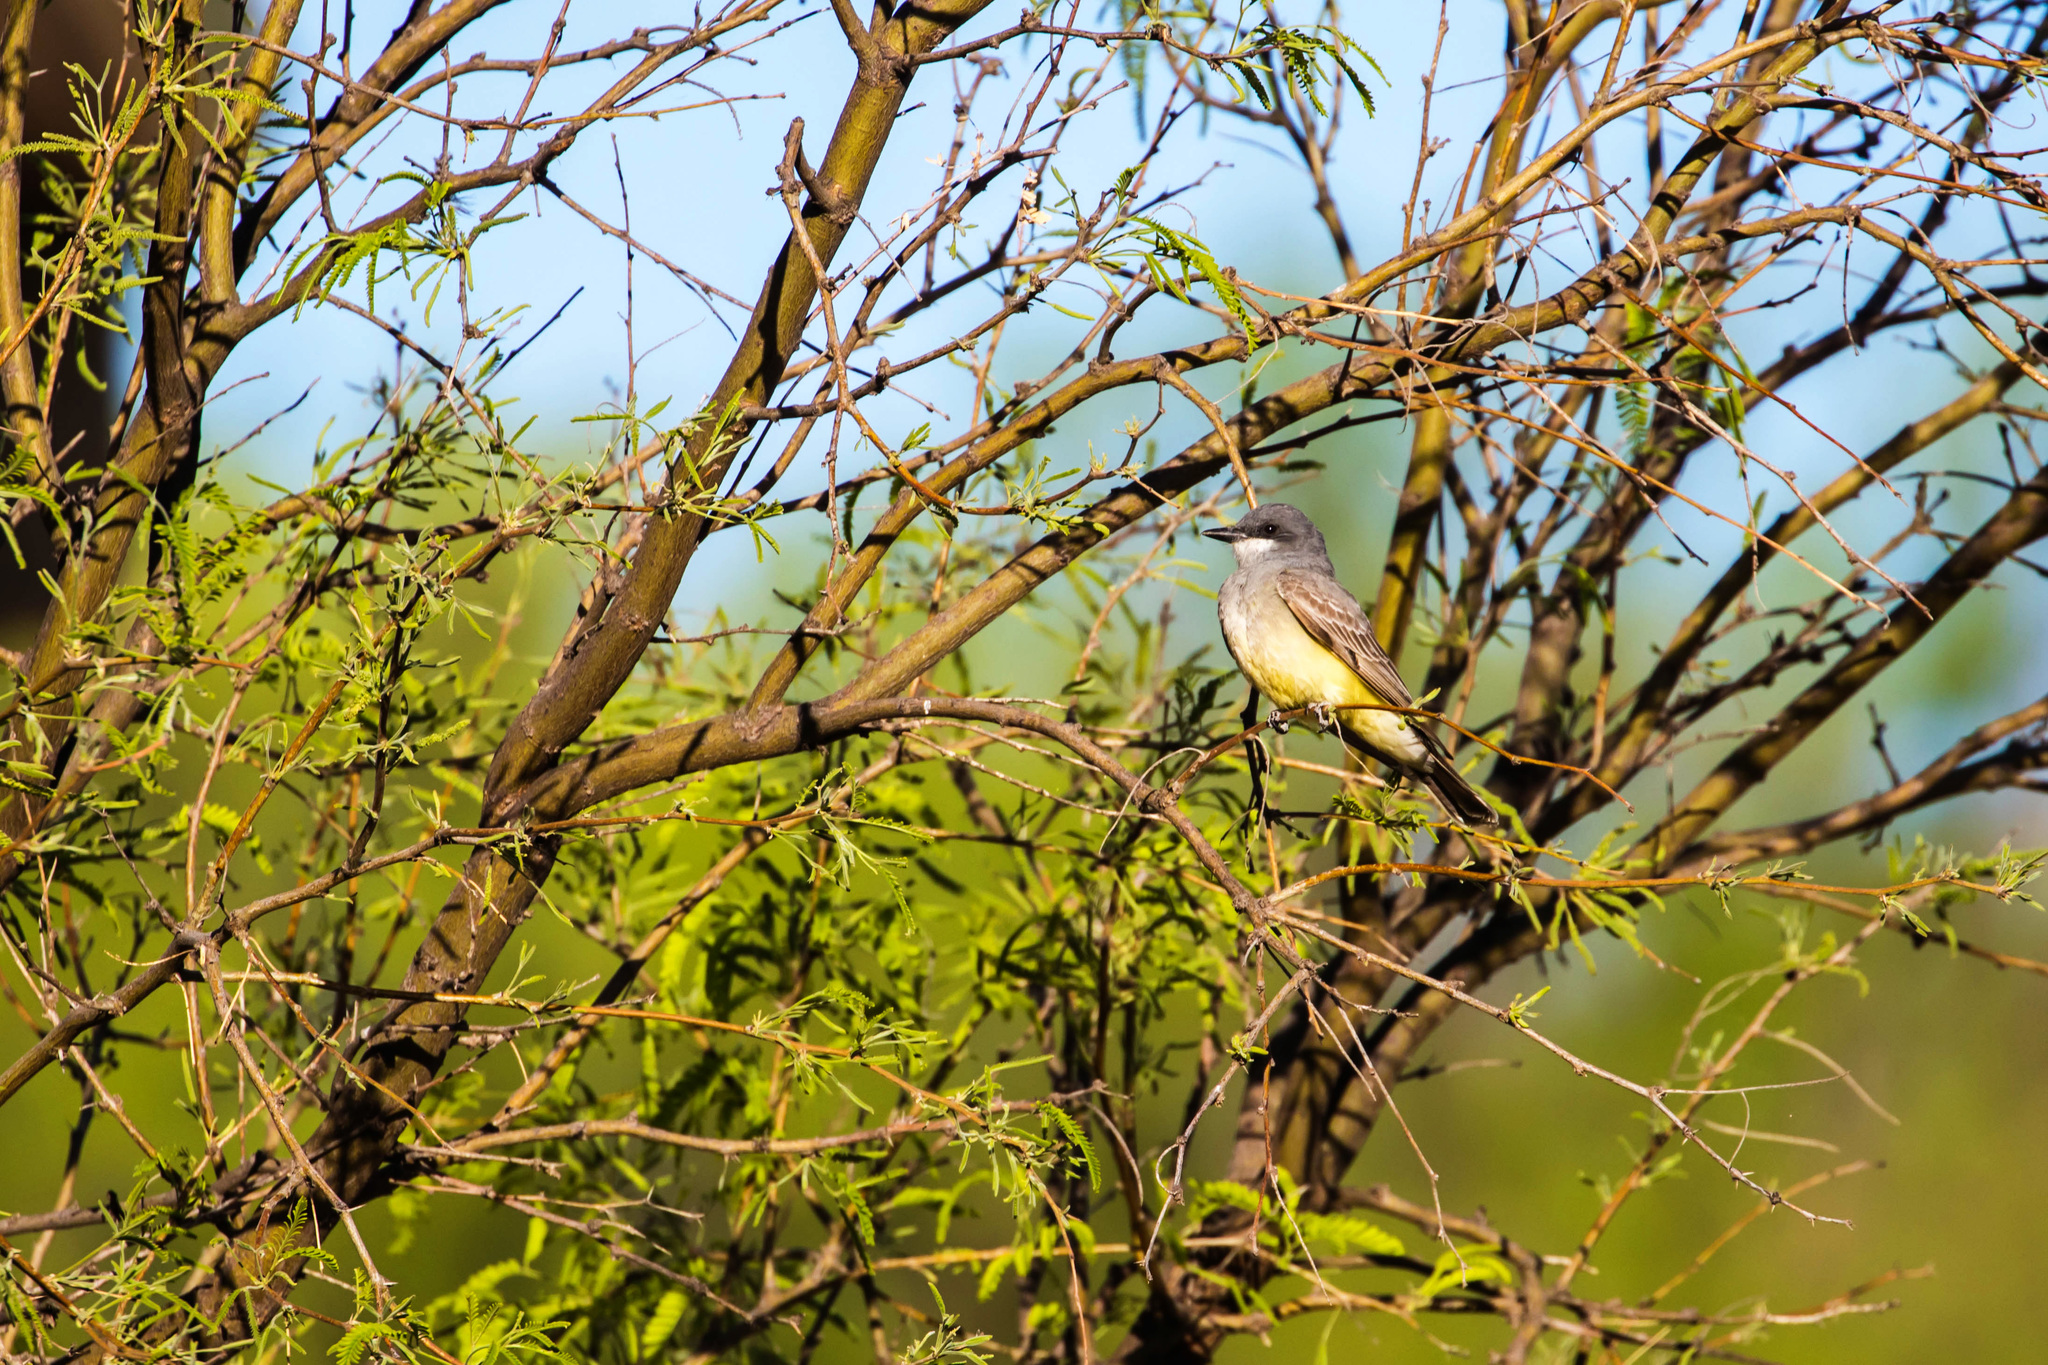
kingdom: Animalia
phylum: Chordata
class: Aves
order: Passeriformes
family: Tyrannidae
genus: Tyrannus
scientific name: Tyrannus vociferans
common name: Cassin's kingbird
